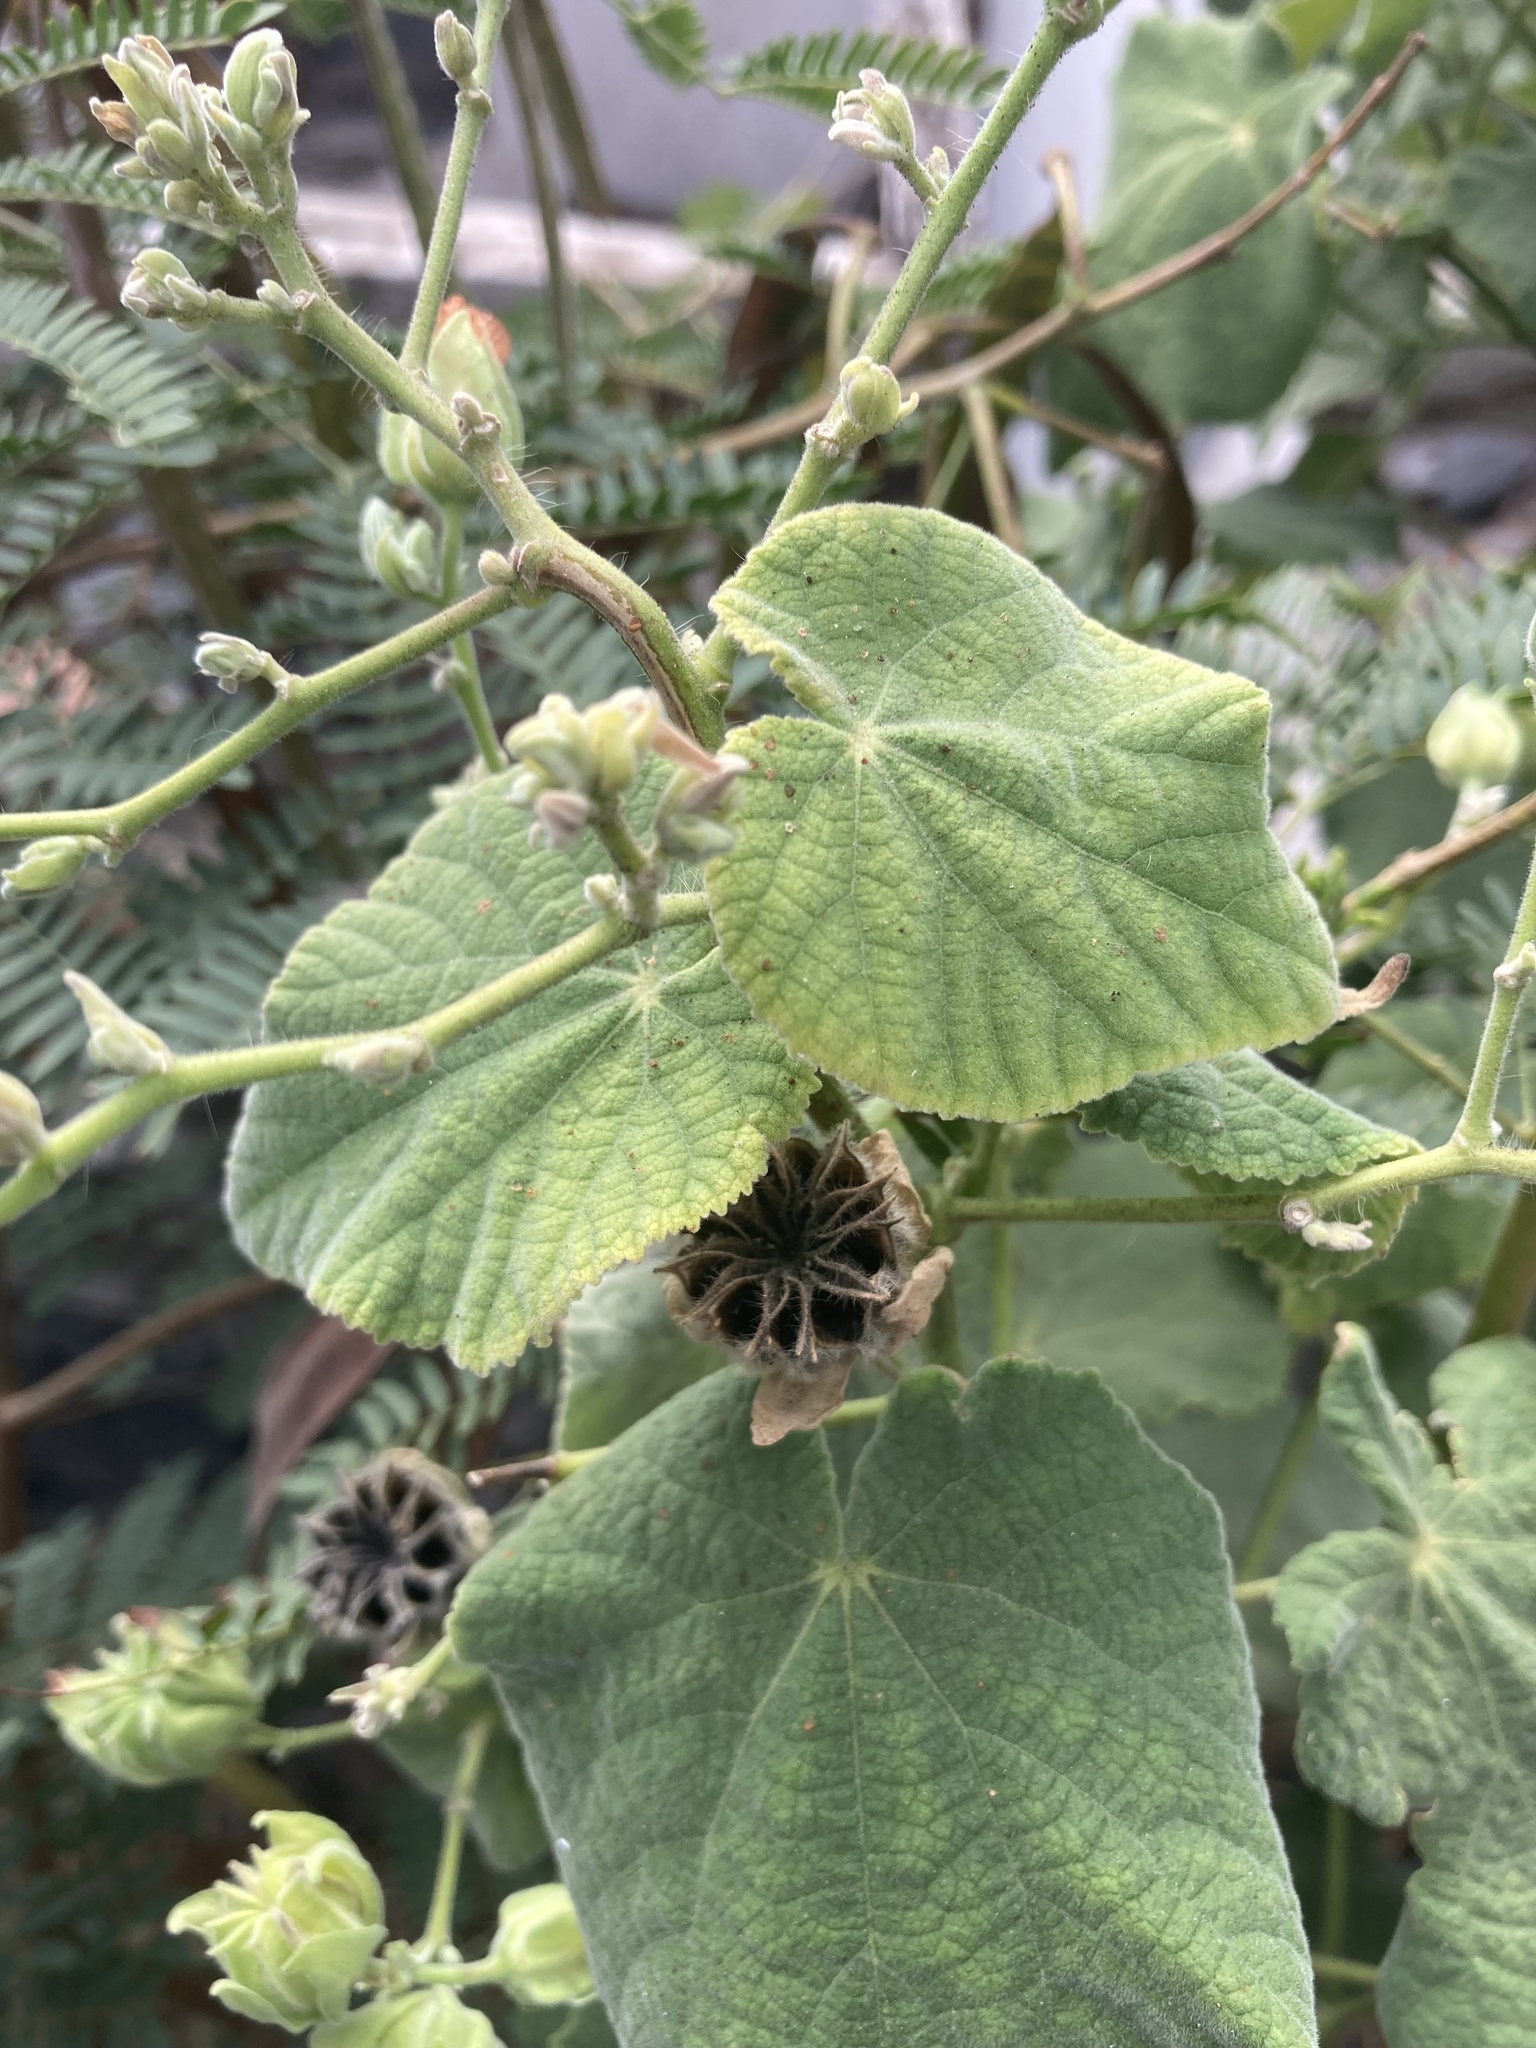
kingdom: Plantae
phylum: Tracheophyta
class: Magnoliopsida
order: Malvales
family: Malvaceae
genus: Abutilon
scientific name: Abutilon grandifolium
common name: Hairy abutilon
